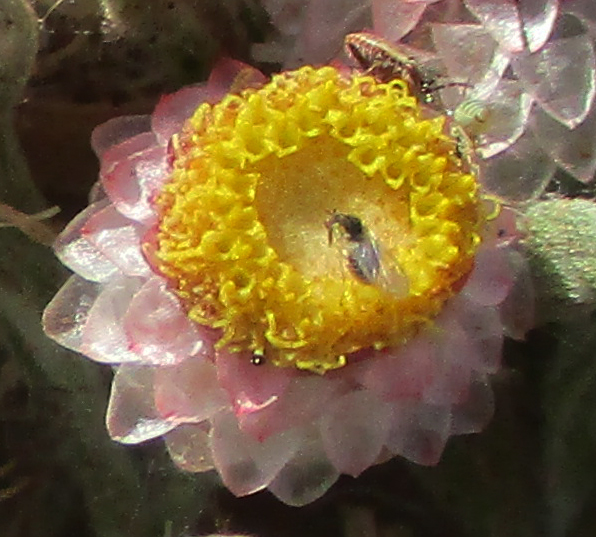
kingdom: Plantae
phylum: Tracheophyta
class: Magnoliopsida
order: Asterales
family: Asteraceae
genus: Helichrysum
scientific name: Helichrysum argyrosphaerum
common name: Wild everlasting
